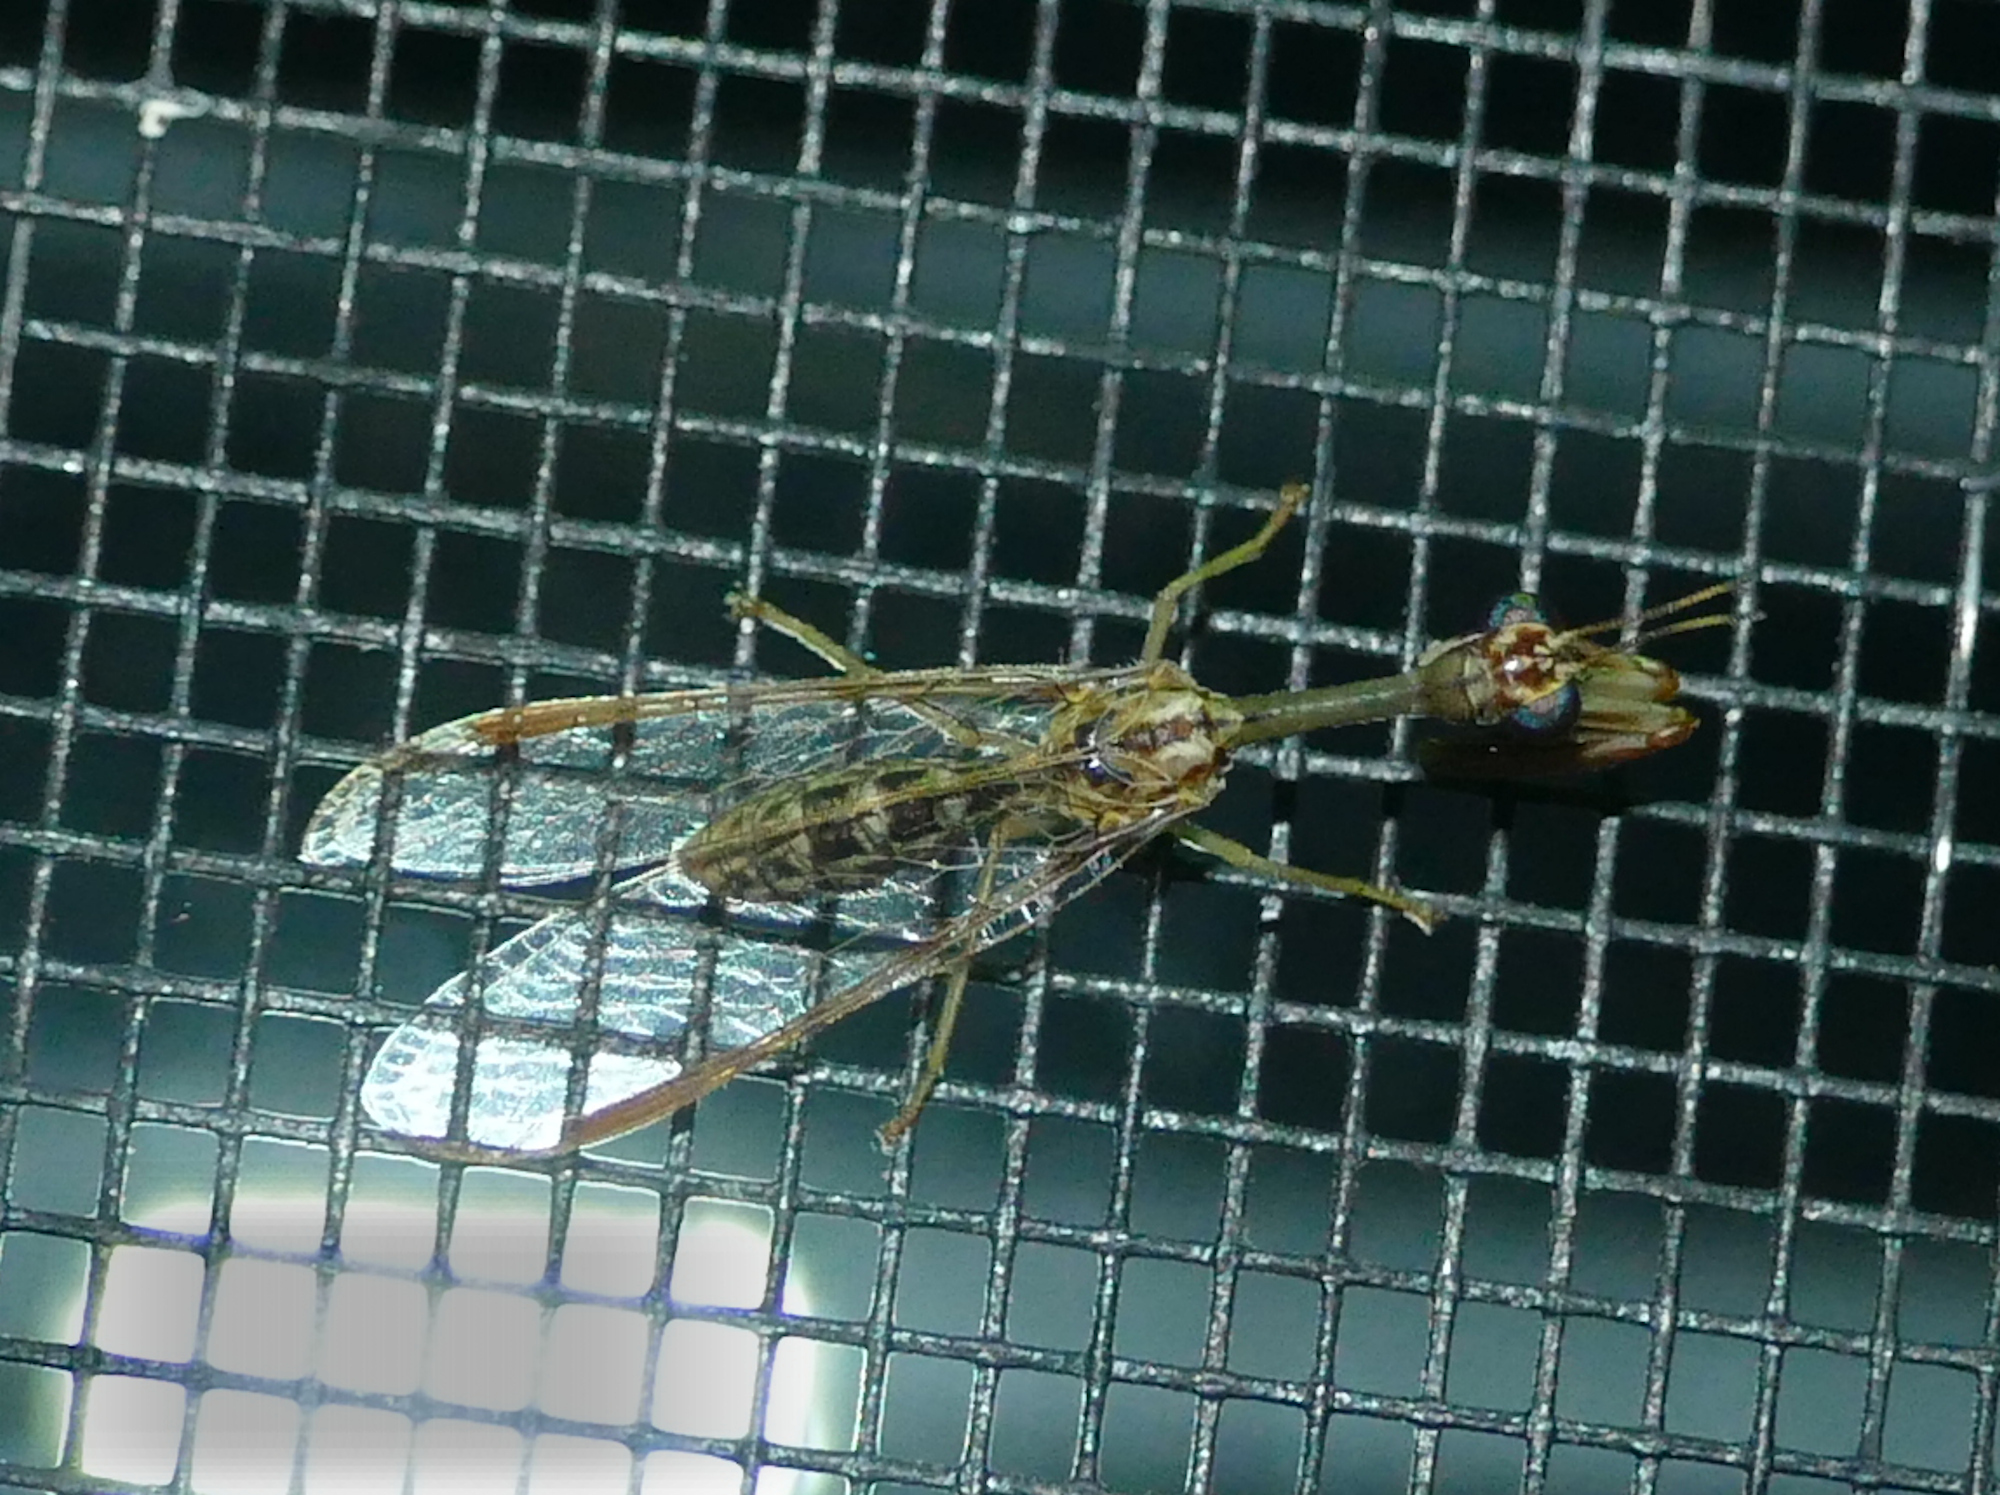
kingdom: Animalia
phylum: Arthropoda
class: Insecta
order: Neuroptera
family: Mantispidae
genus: Dicromantispa
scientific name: Dicromantispa sayi
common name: Say's mantidfly
